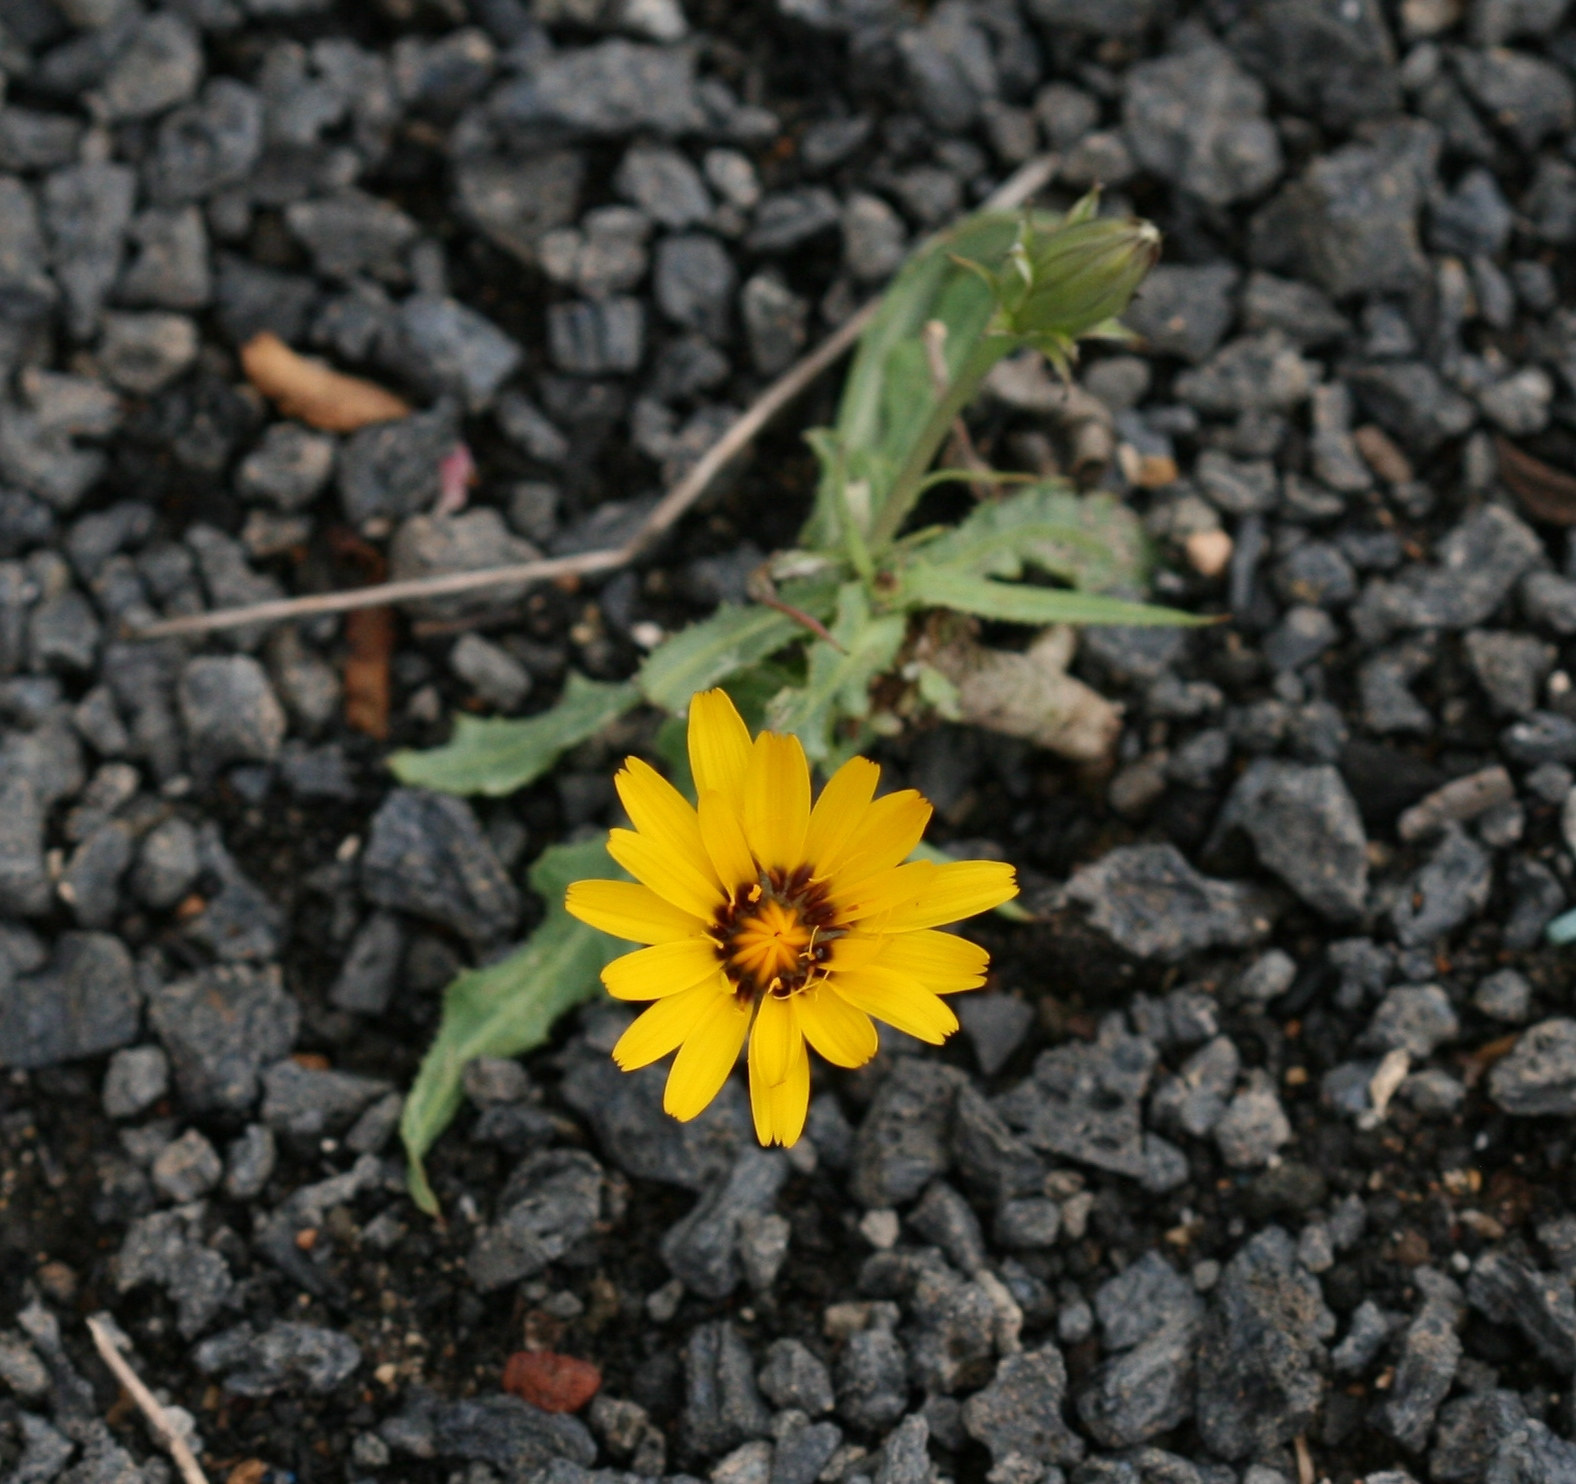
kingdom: Plantae
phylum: Tracheophyta
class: Magnoliopsida
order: Asterales
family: Asteraceae
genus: Reichardia
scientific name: Reichardia tingitana
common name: Reichardia
